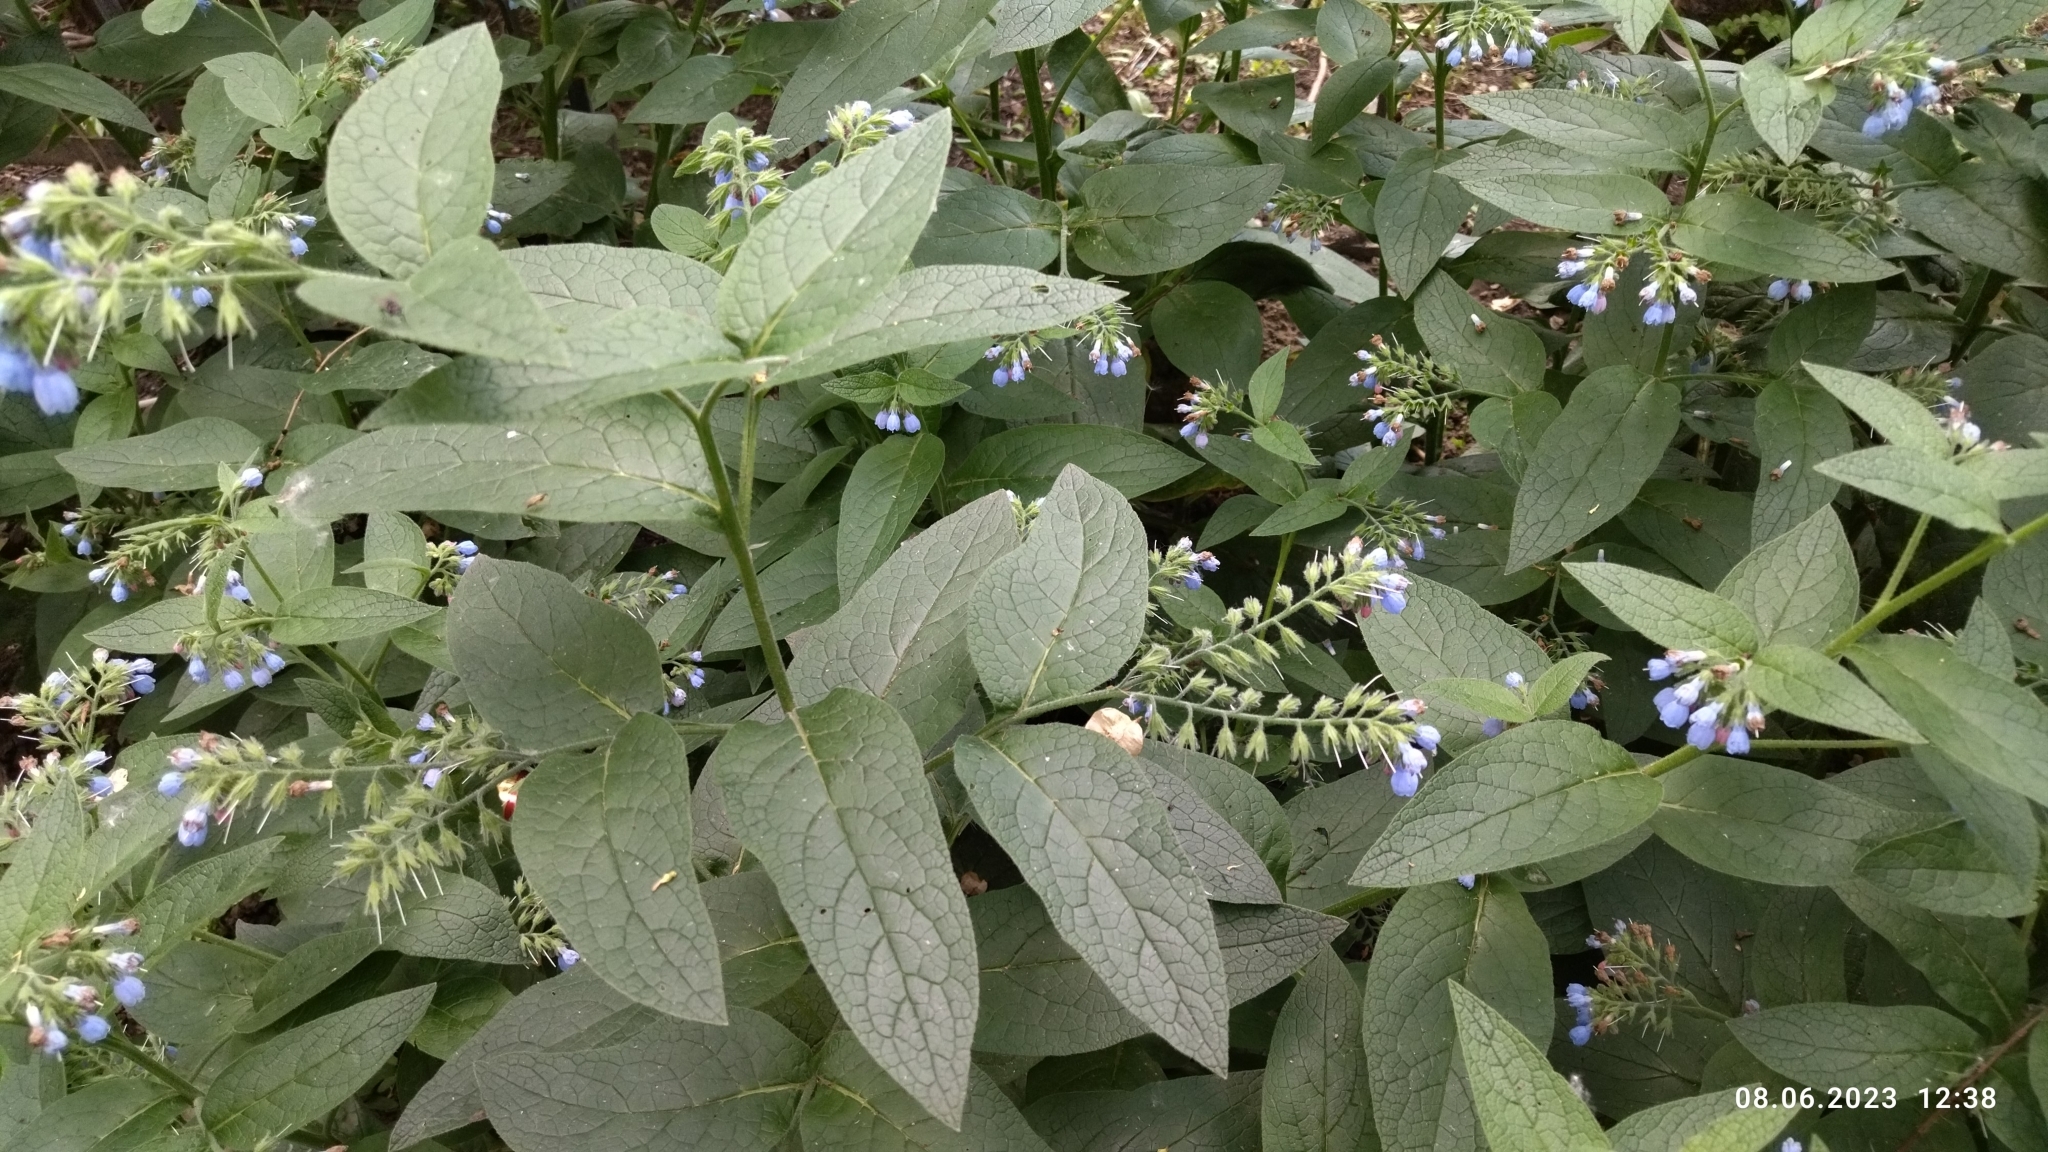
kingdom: Plantae
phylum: Tracheophyta
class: Magnoliopsida
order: Boraginales
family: Boraginaceae
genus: Symphytum
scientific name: Symphytum caucasicum
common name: Caucasian comfrey
